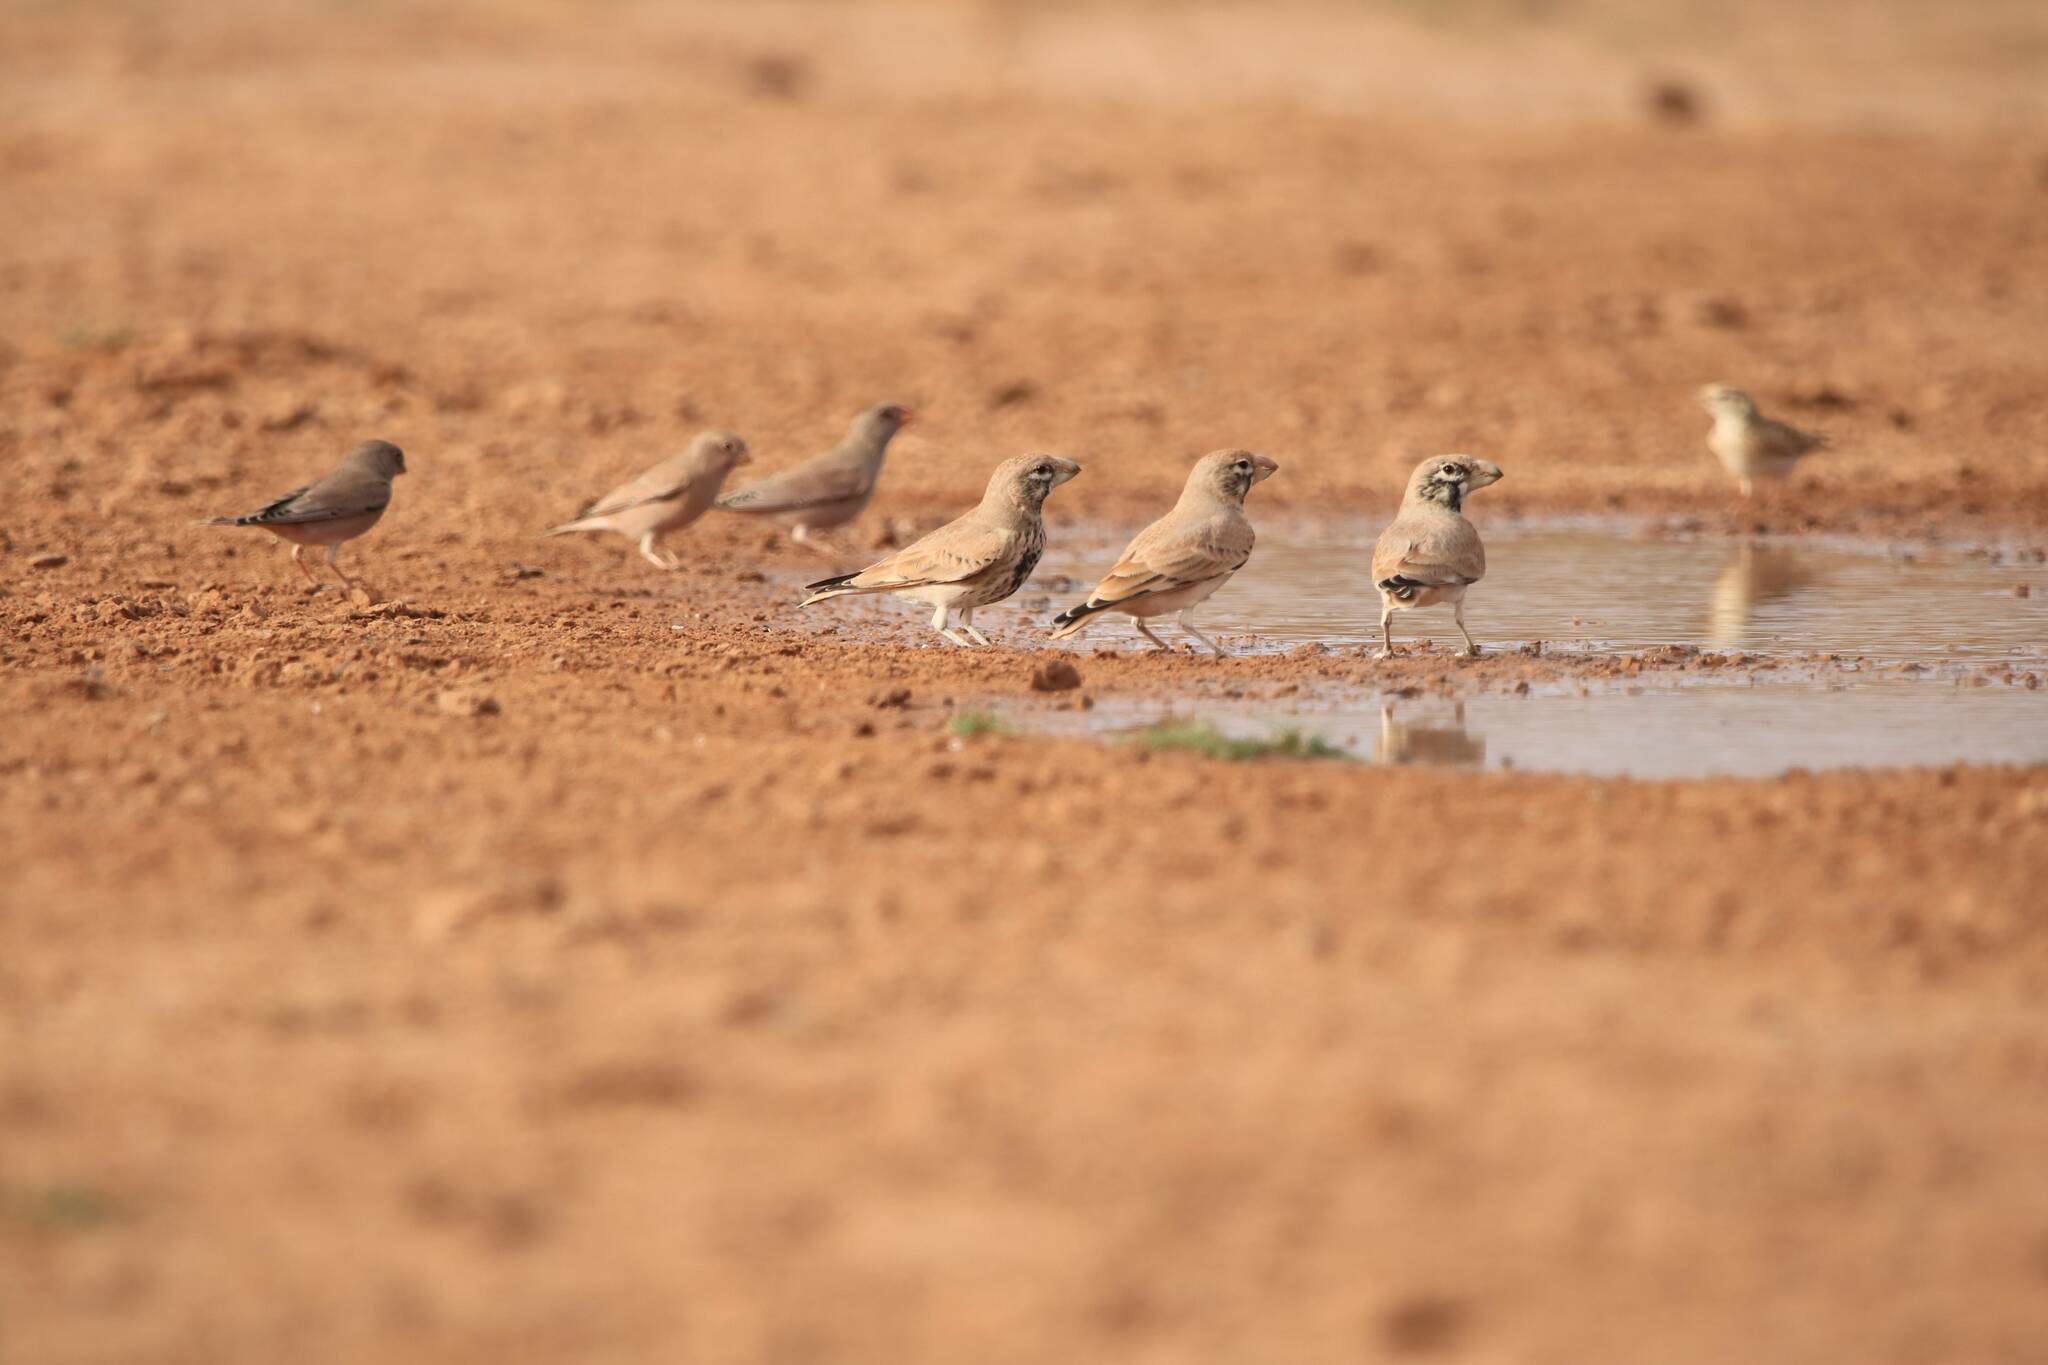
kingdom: Animalia
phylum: Chordata
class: Aves
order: Passeriformes
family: Alaudidae
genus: Ramphocoris
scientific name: Ramphocoris clotbey
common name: Thick-billed lark
